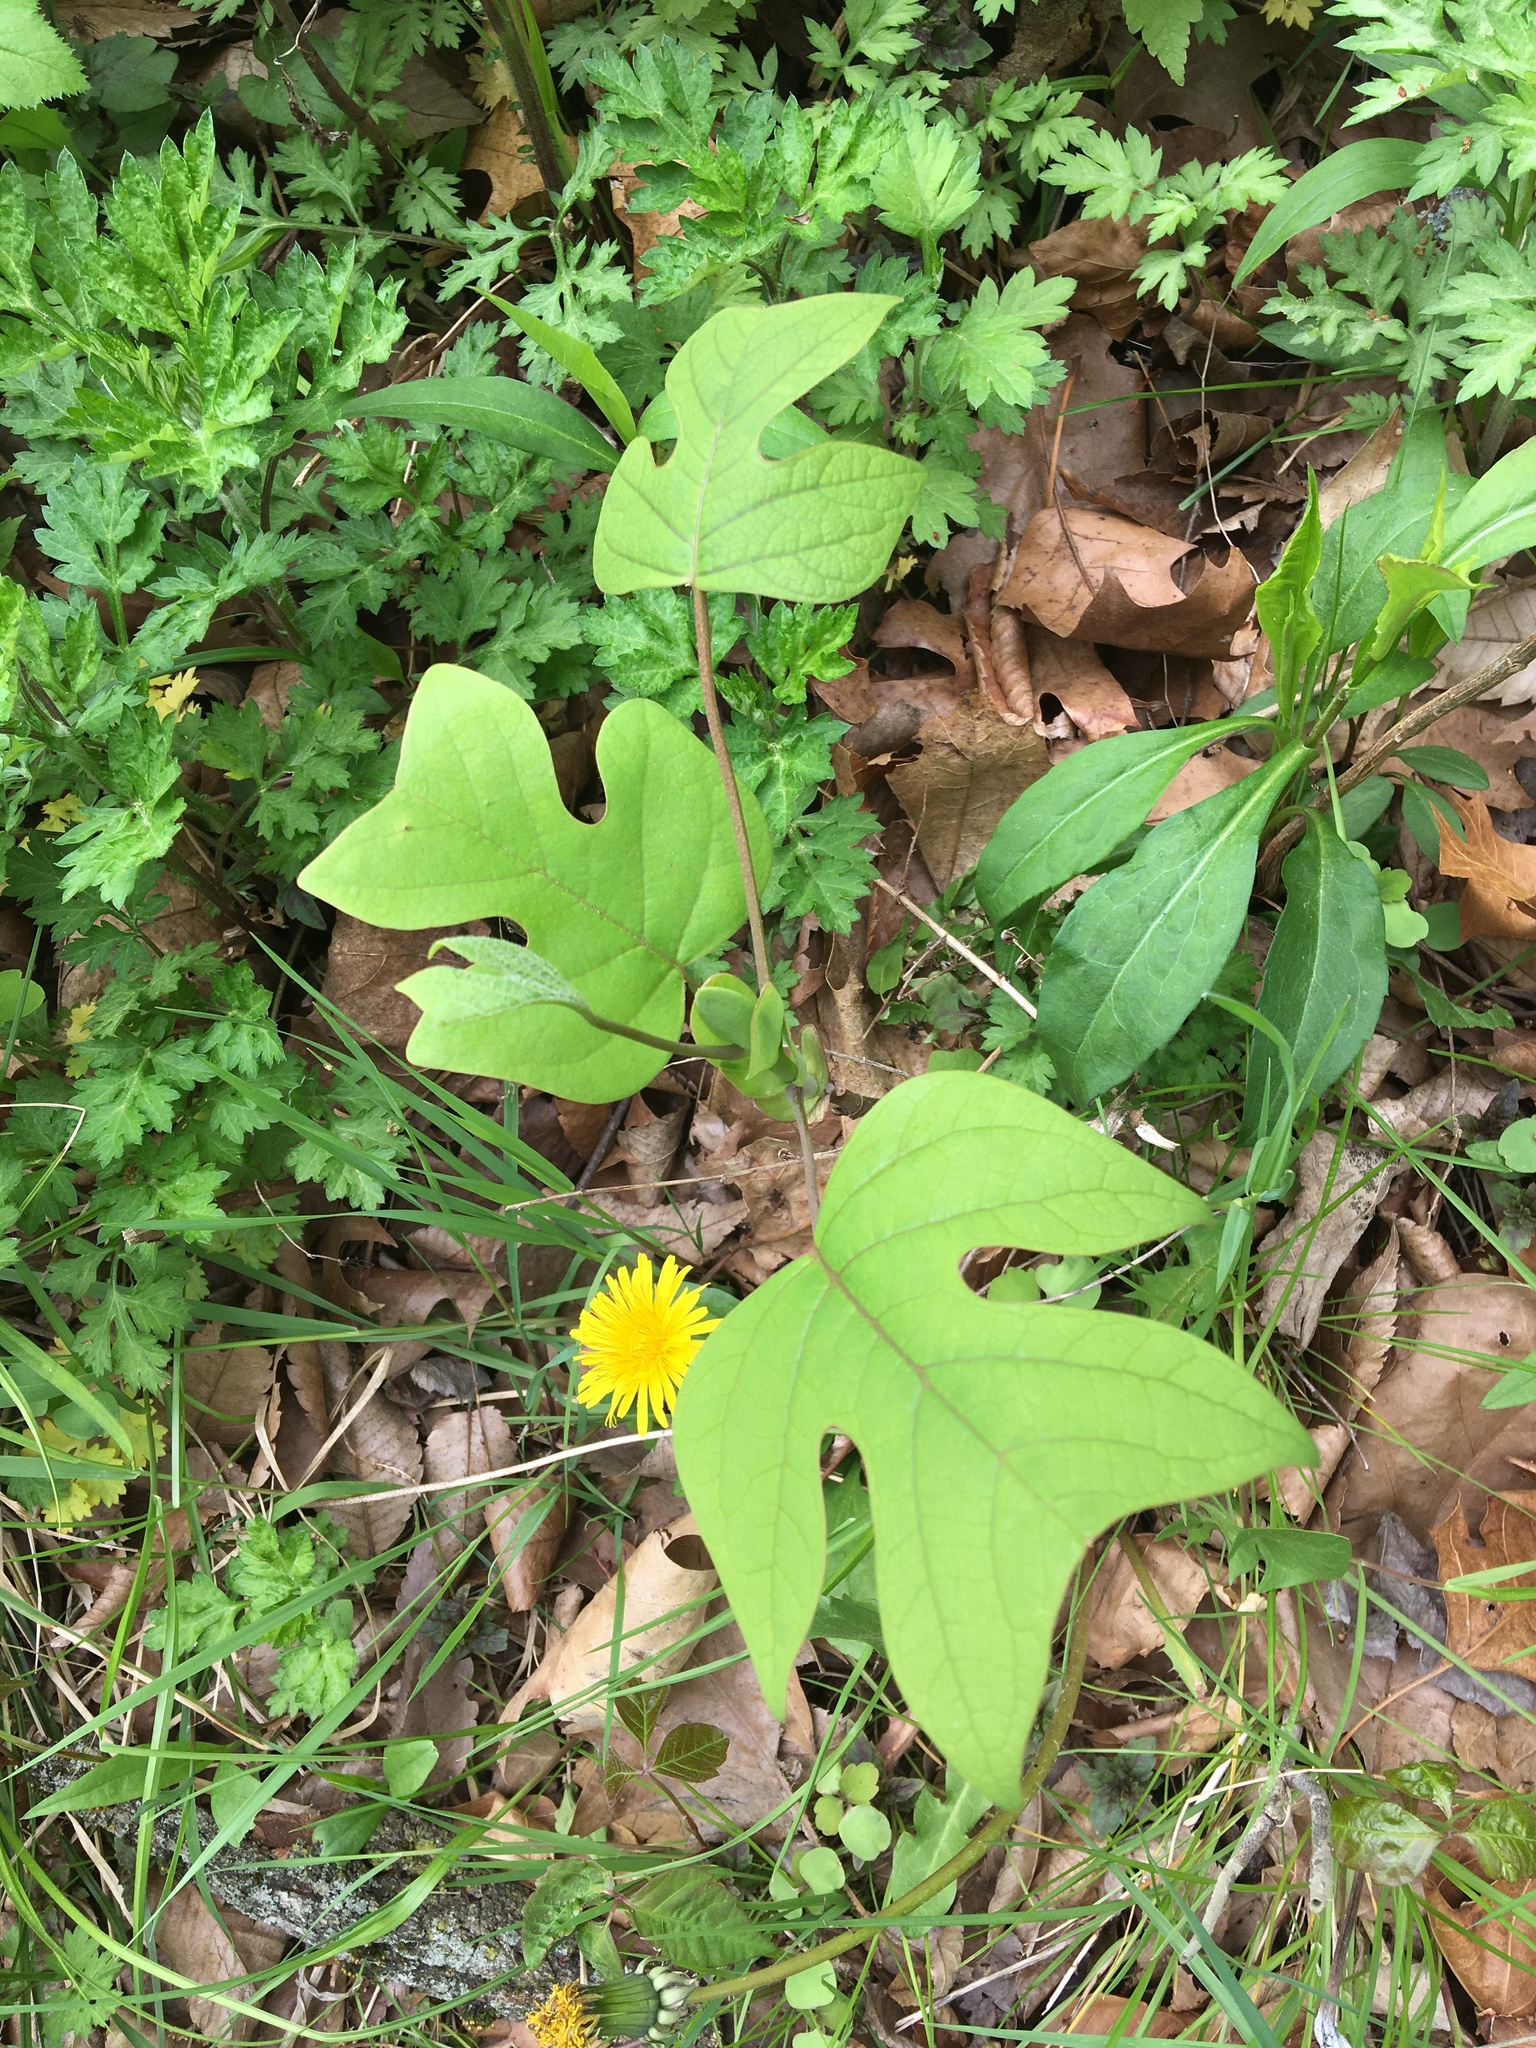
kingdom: Plantae
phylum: Tracheophyta
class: Magnoliopsida
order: Magnoliales
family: Magnoliaceae
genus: Liriodendron
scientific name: Liriodendron tulipifera
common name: Tulip tree
